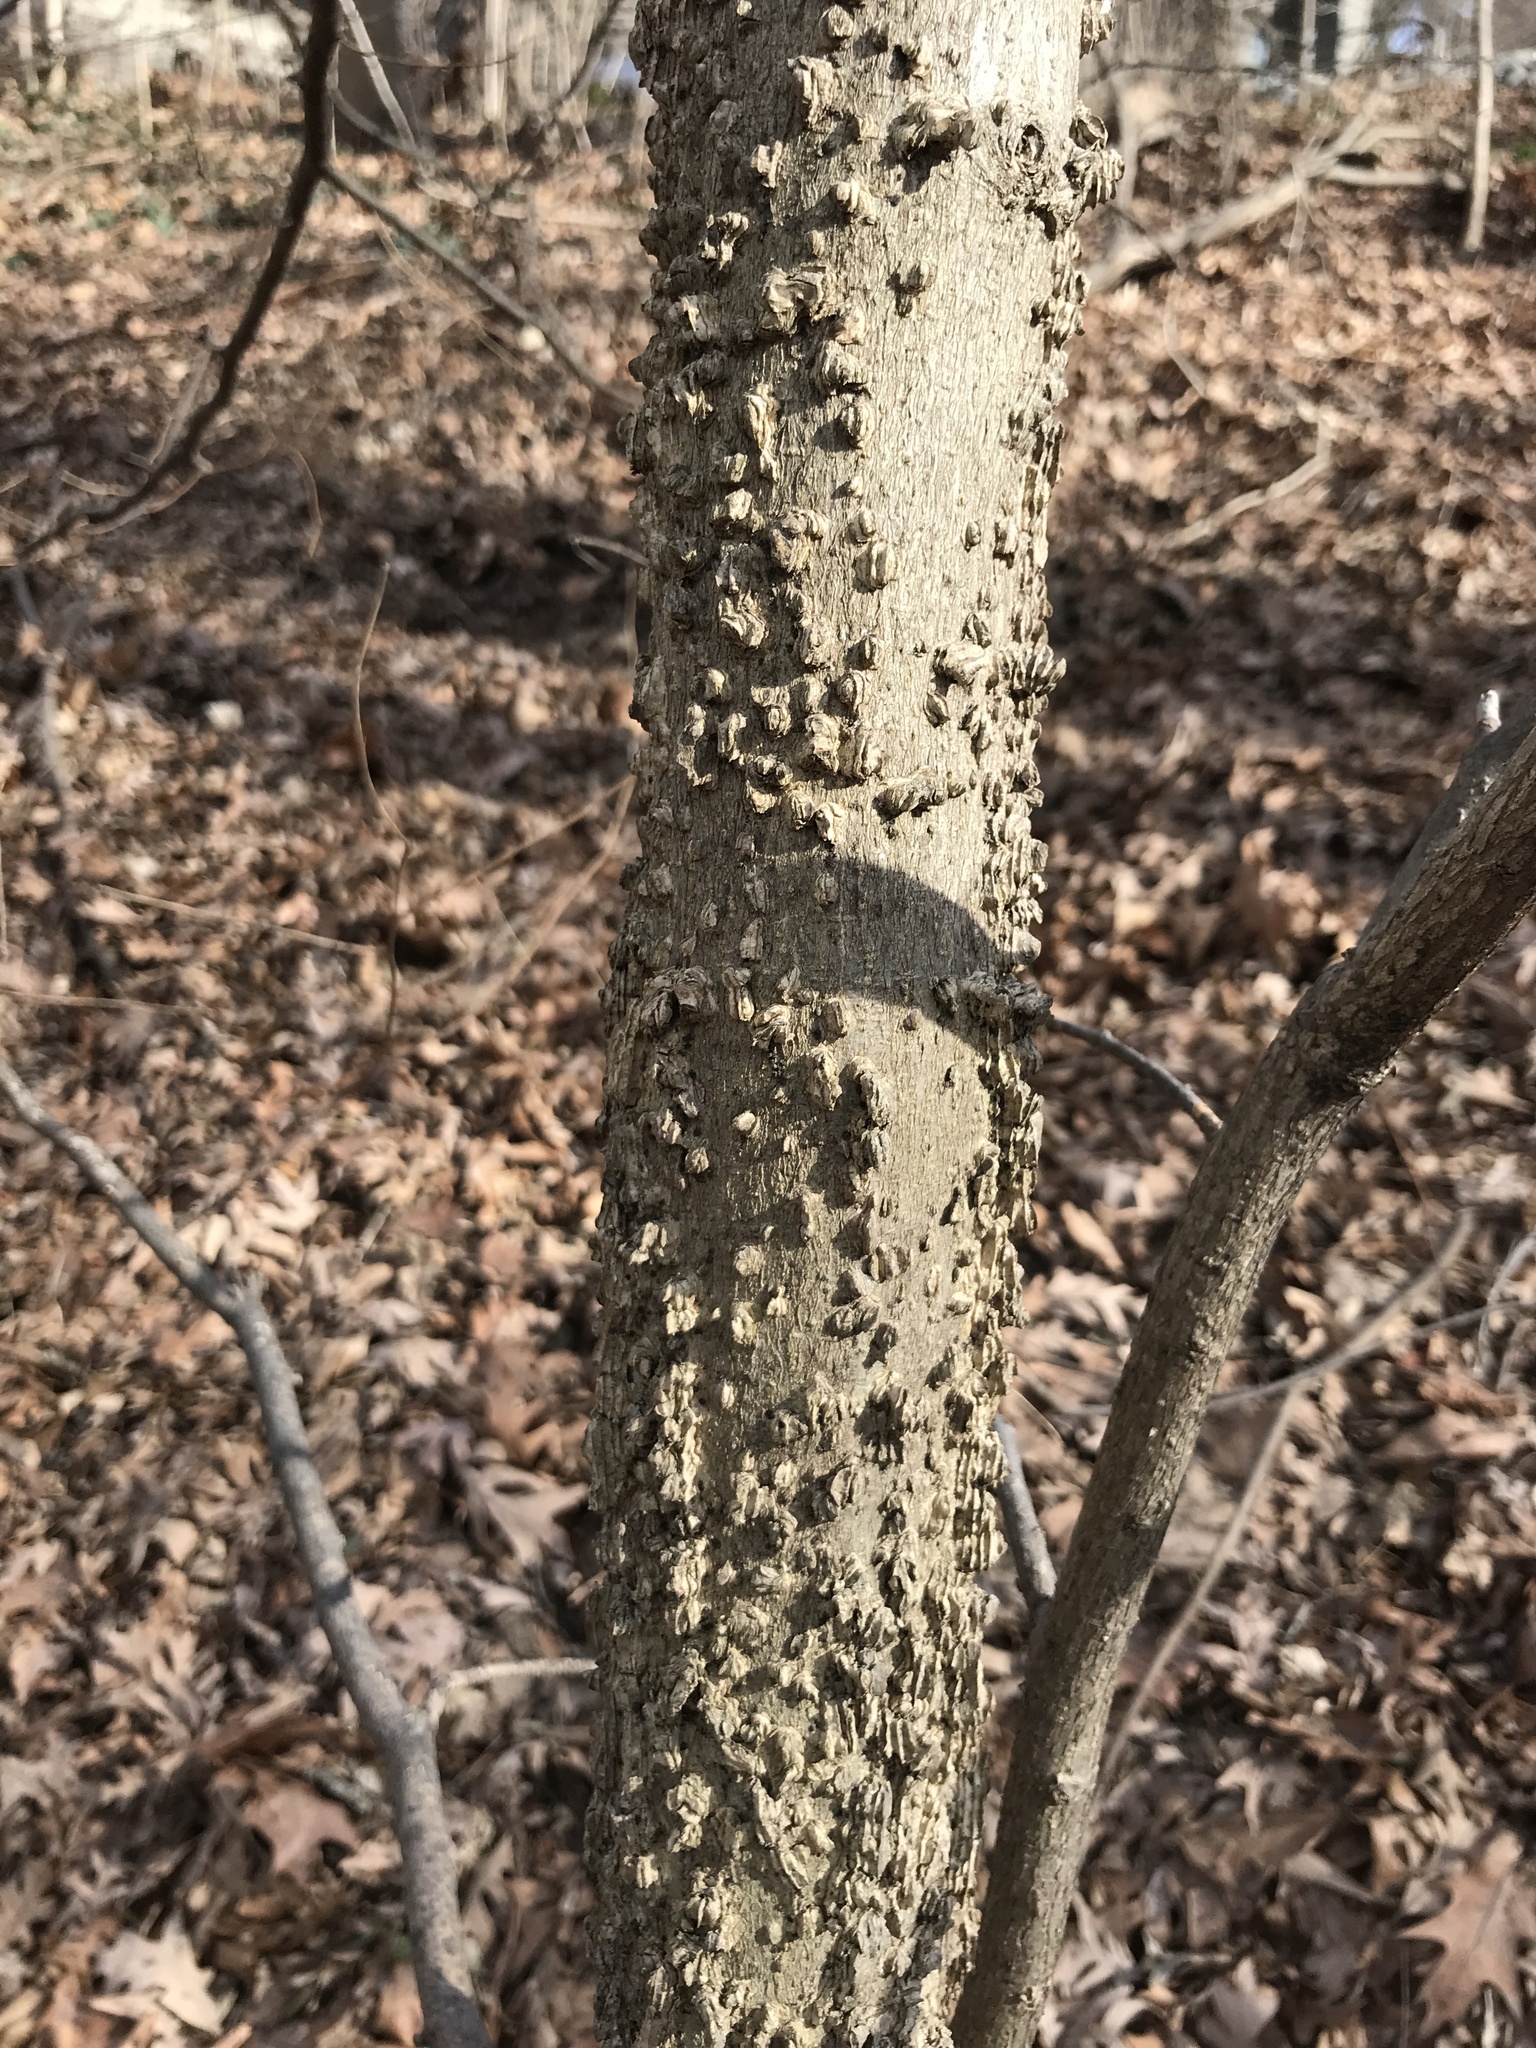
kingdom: Plantae
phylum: Tracheophyta
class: Magnoliopsida
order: Rosales
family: Cannabaceae
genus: Celtis
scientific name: Celtis occidentalis
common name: Common hackberry
